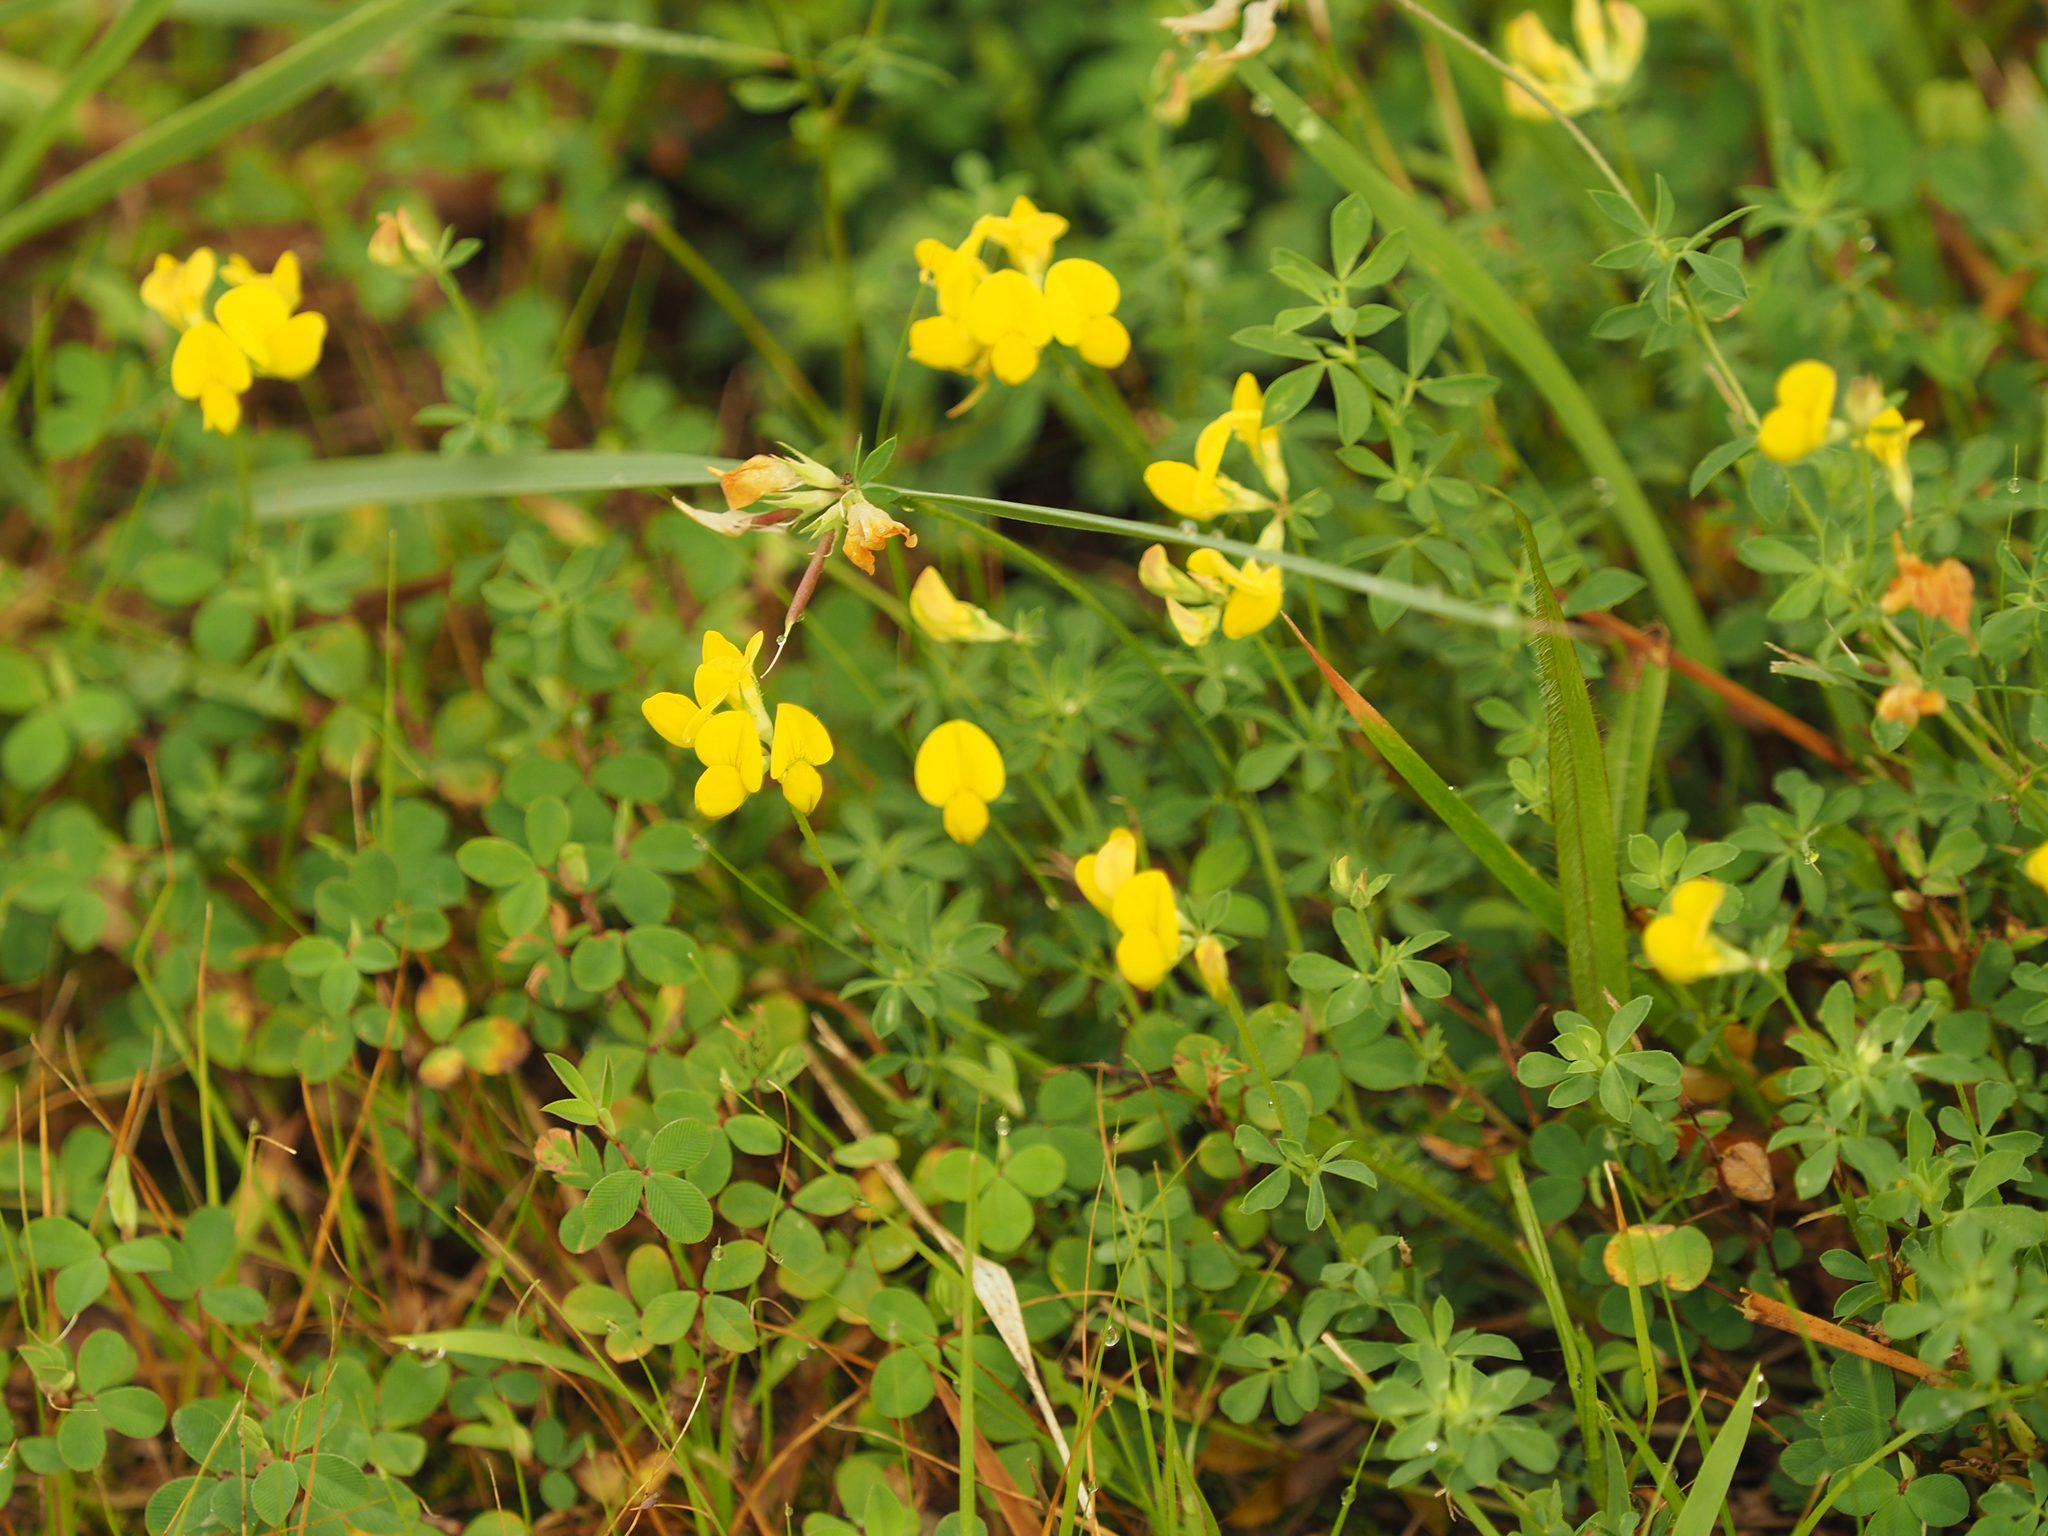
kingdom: Plantae
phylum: Tracheophyta
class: Magnoliopsida
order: Fabales
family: Fabaceae
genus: Lotus
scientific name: Lotus corniculatus
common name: Common bird's-foot-trefoil
